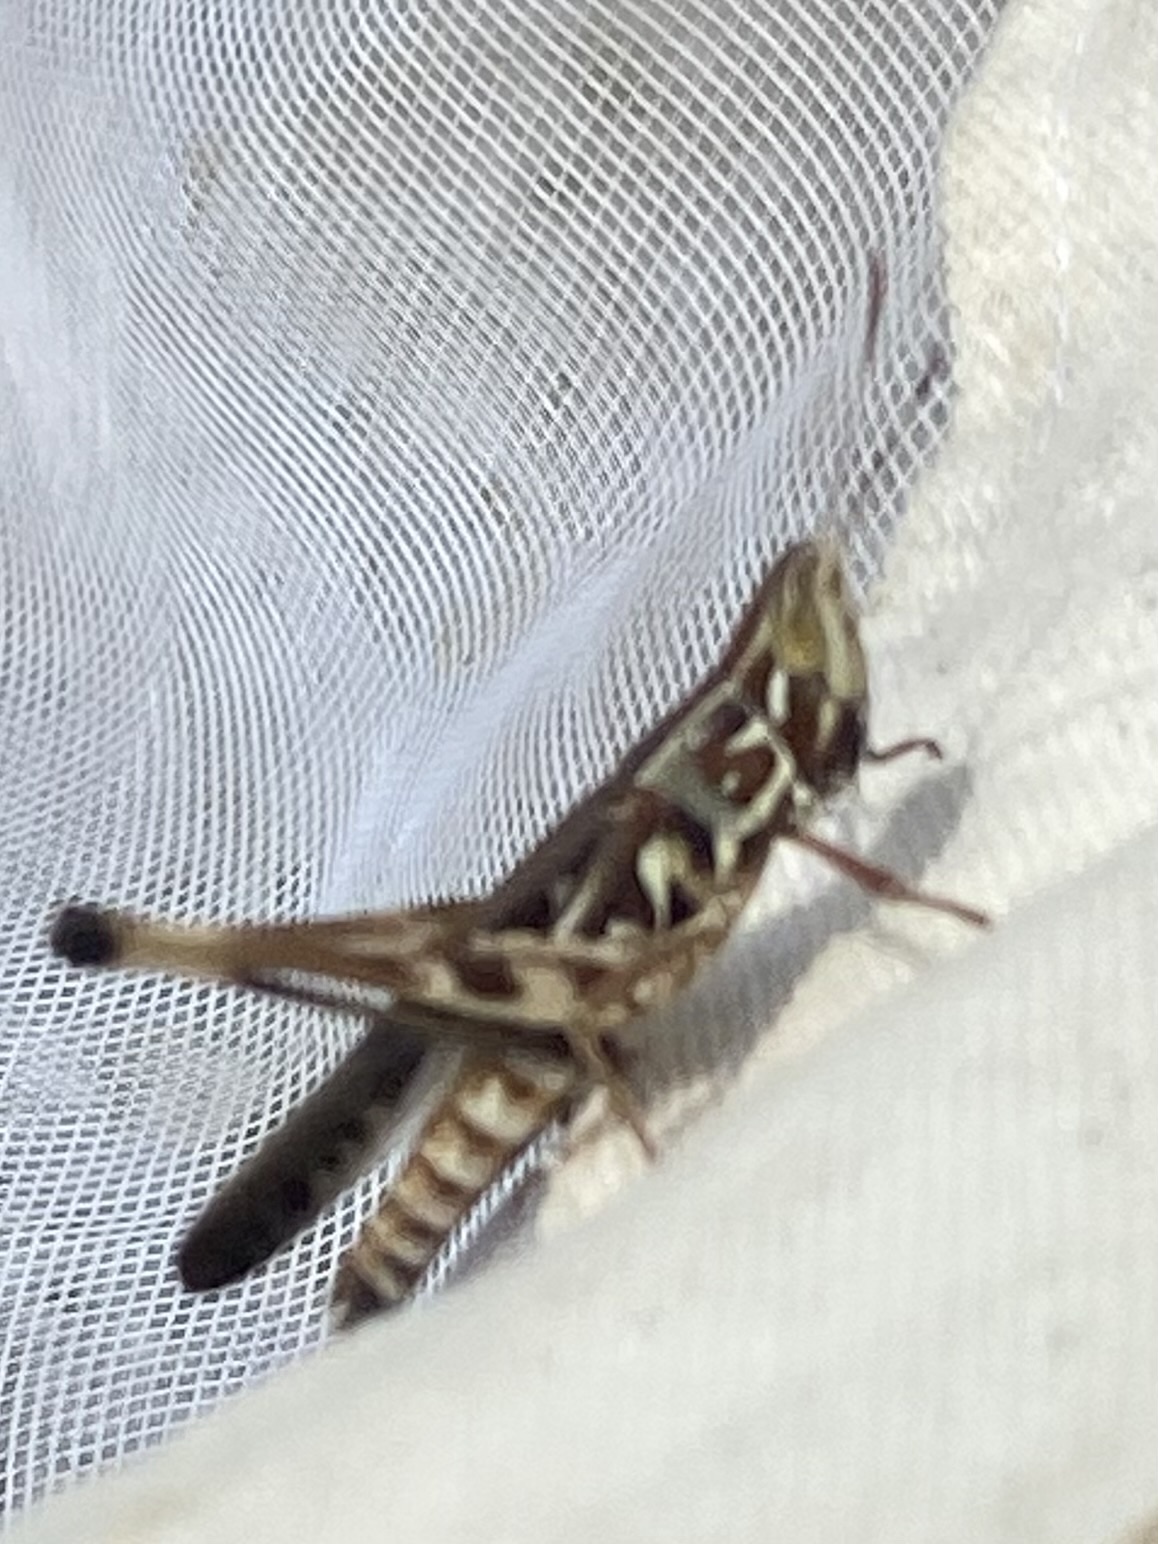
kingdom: Animalia
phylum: Arthropoda
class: Insecta
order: Orthoptera
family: Acrididae
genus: Syrbula
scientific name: Syrbula admirabilis
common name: Handsome grasshopper
